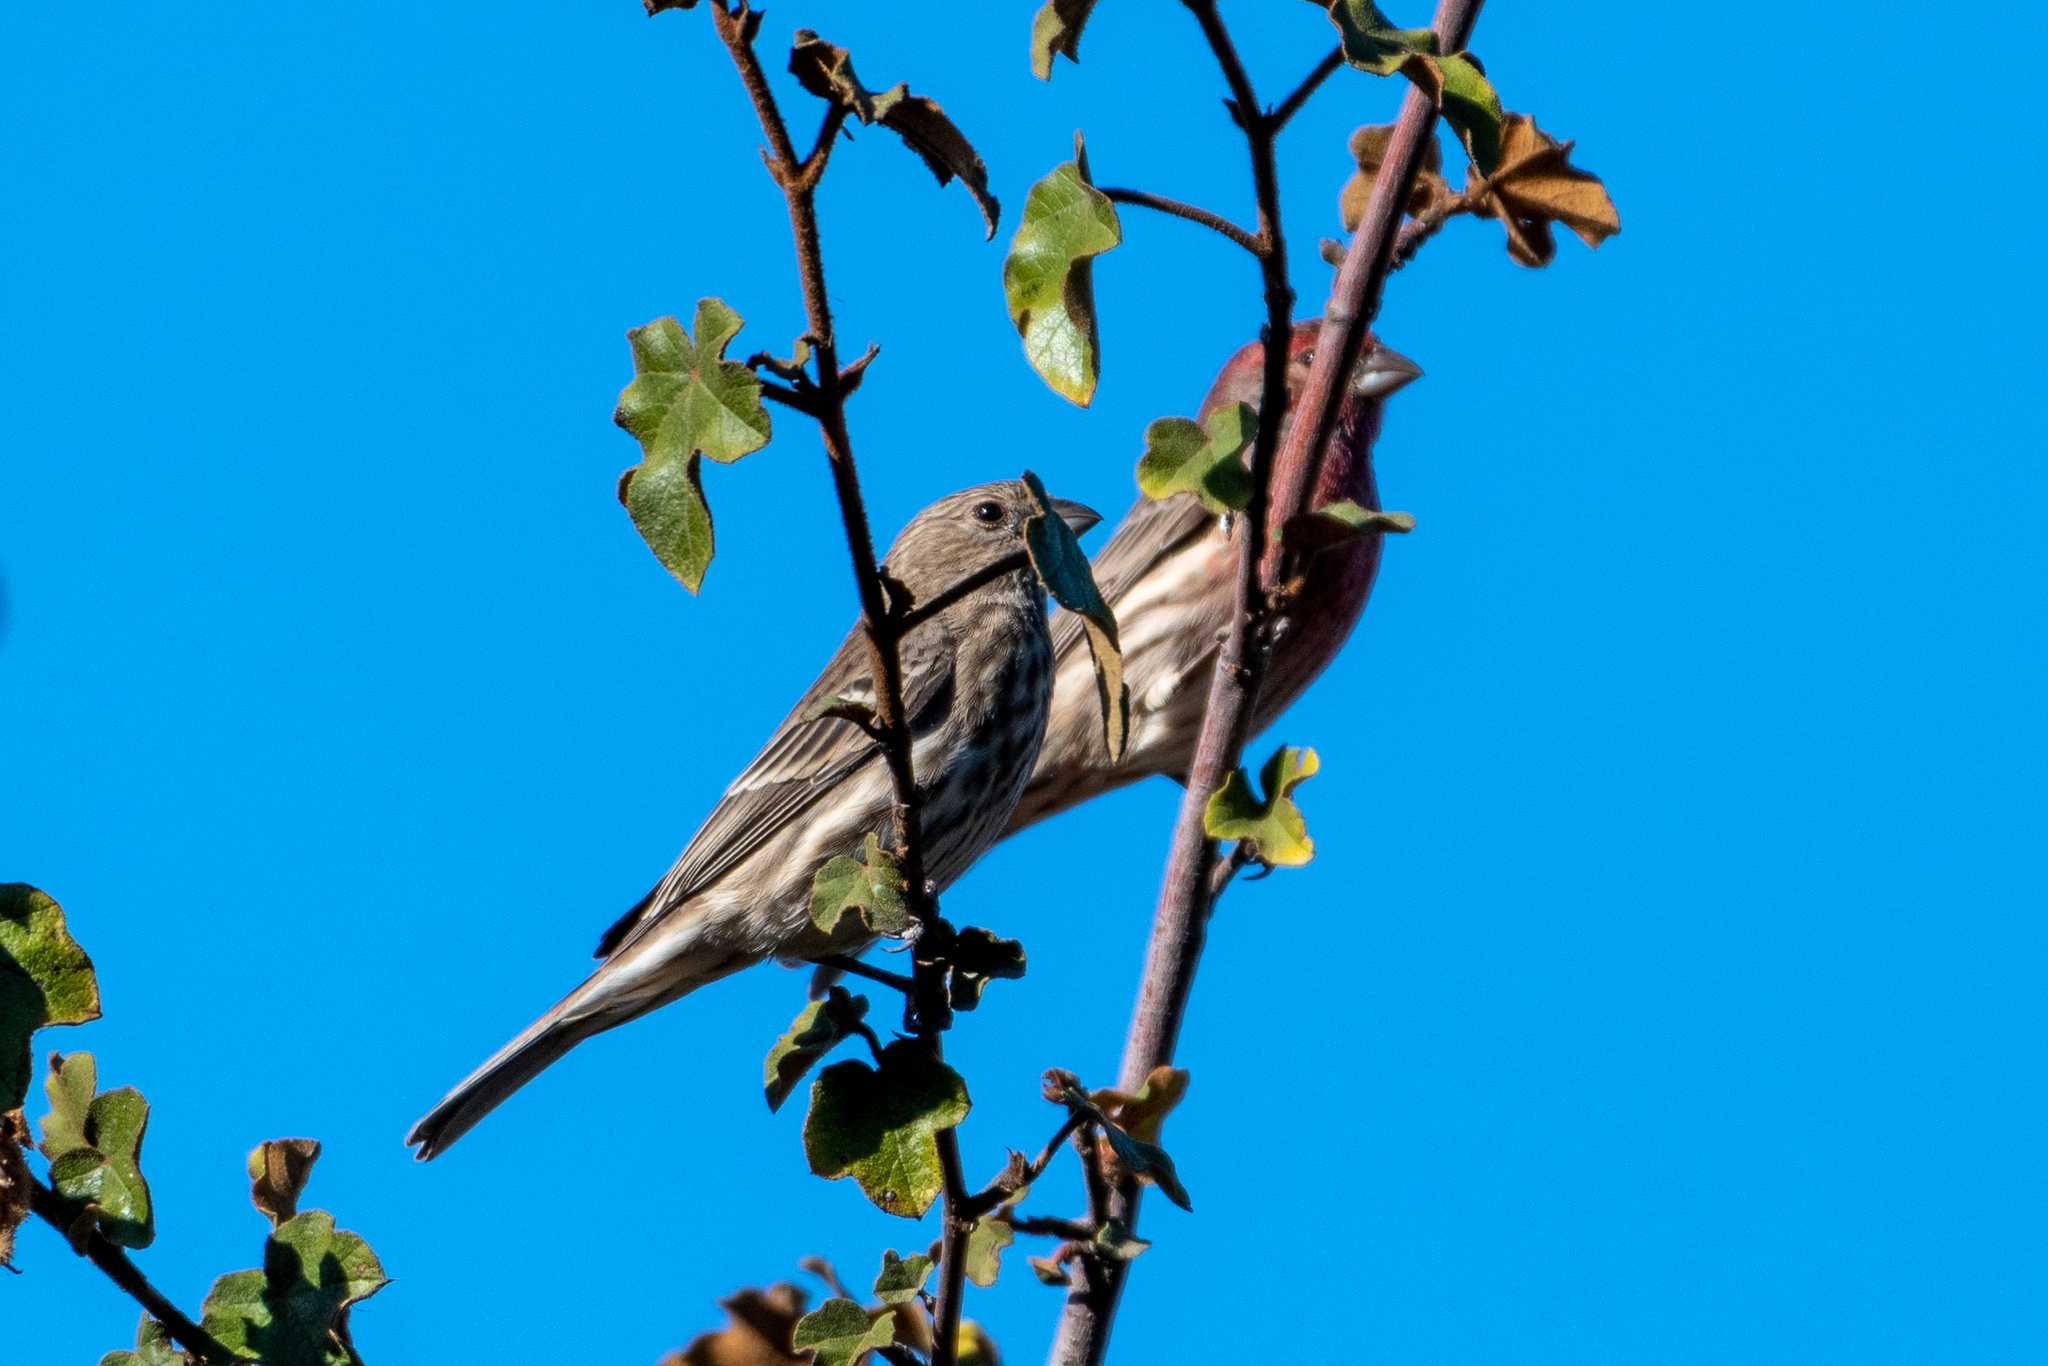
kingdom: Animalia
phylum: Chordata
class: Aves
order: Passeriformes
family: Fringillidae
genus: Haemorhous
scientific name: Haemorhous mexicanus
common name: House finch
